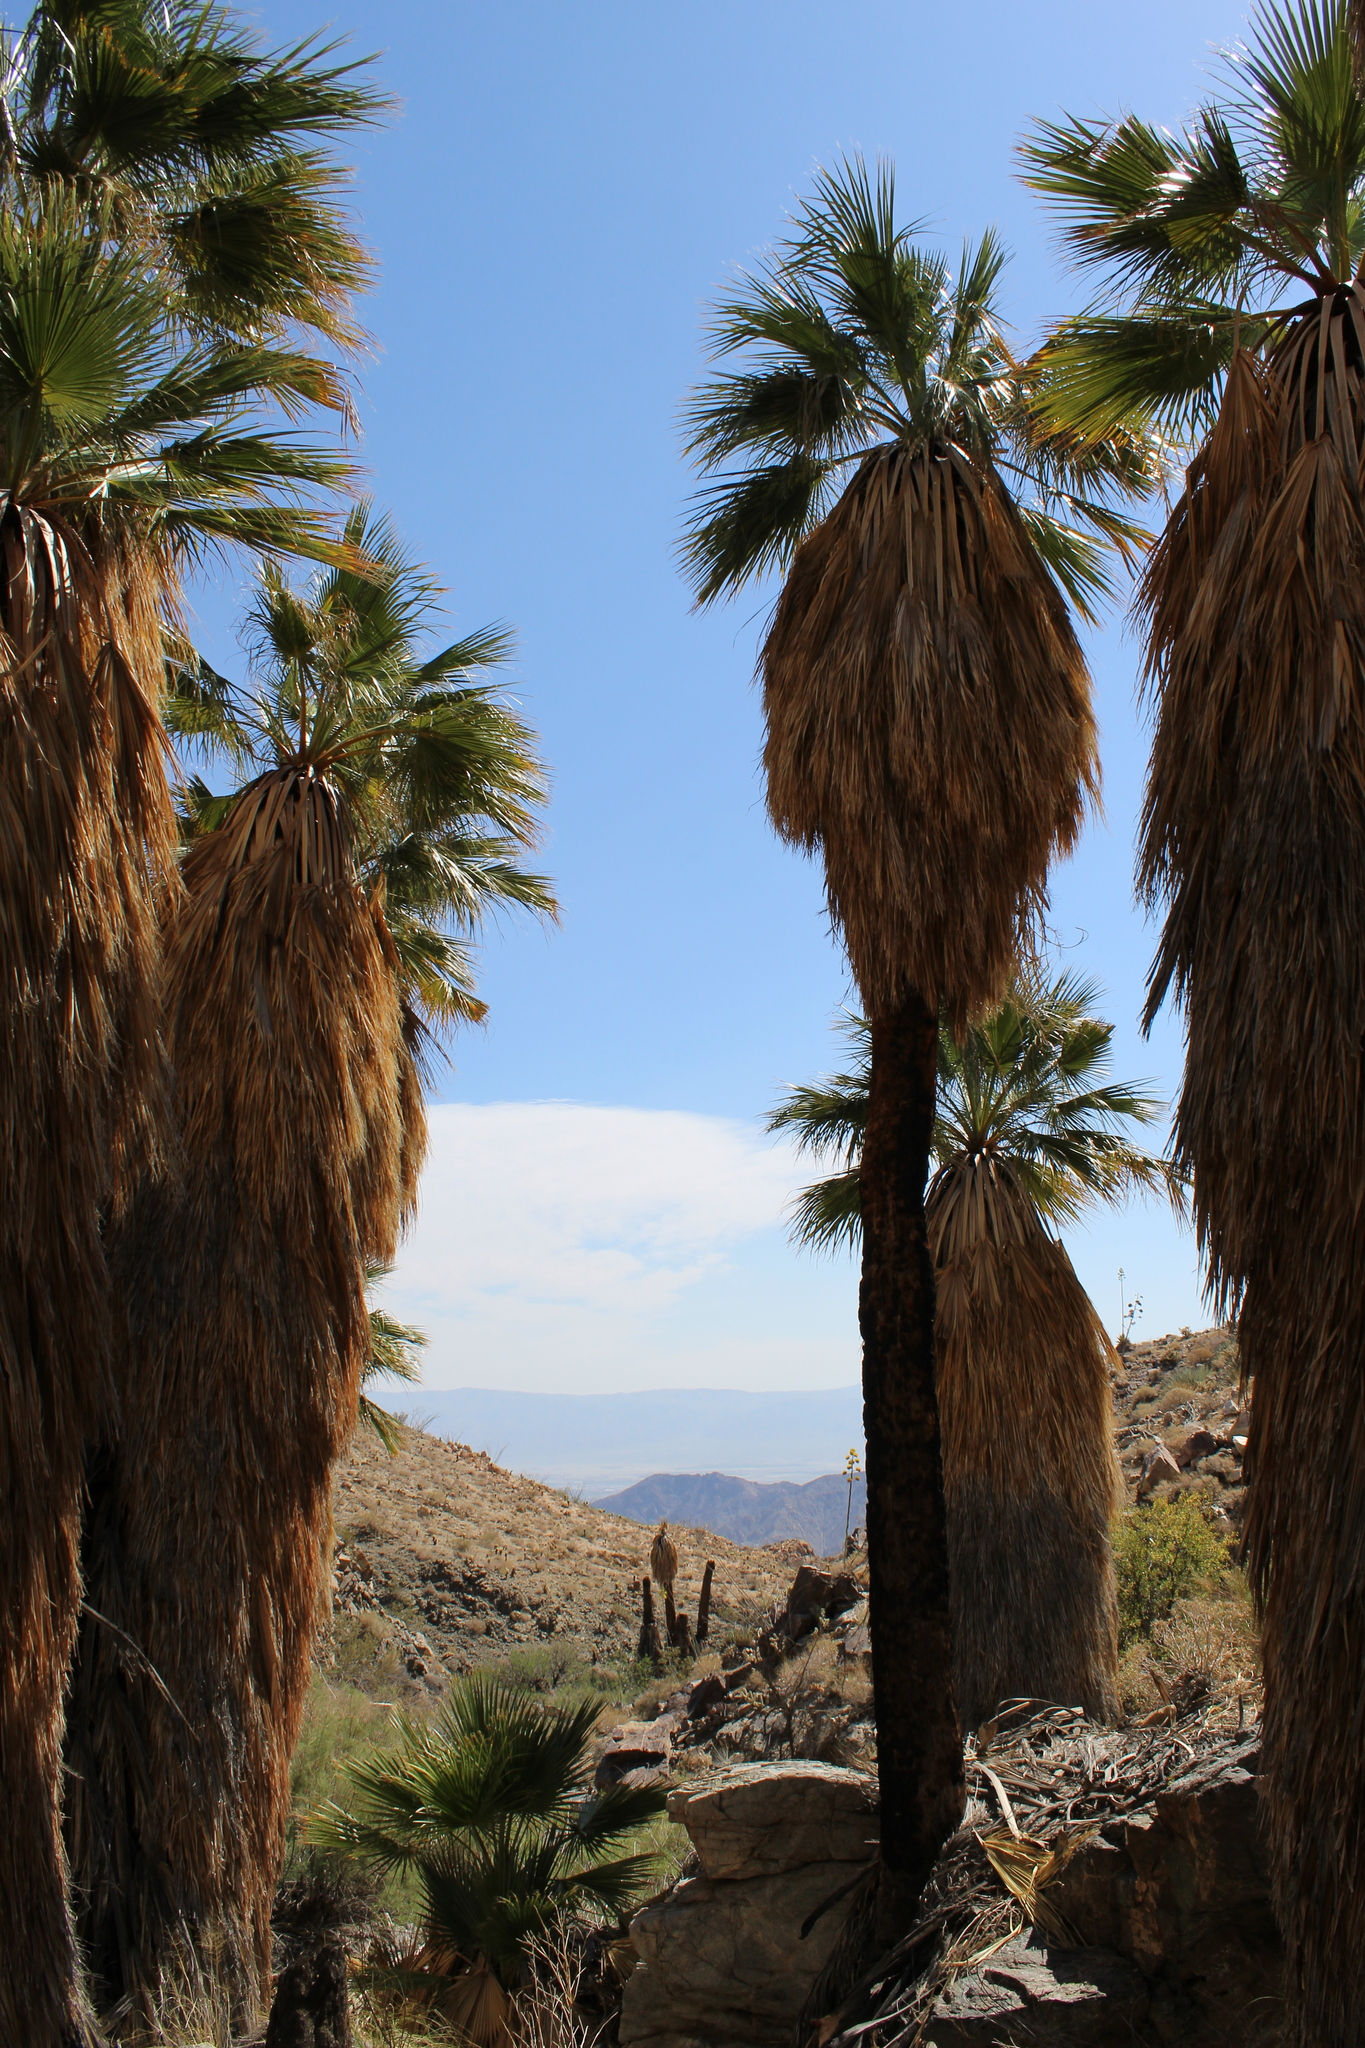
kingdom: Plantae
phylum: Tracheophyta
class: Liliopsida
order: Arecales
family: Arecaceae
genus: Washingtonia
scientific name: Washingtonia filifera
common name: California fan palm
